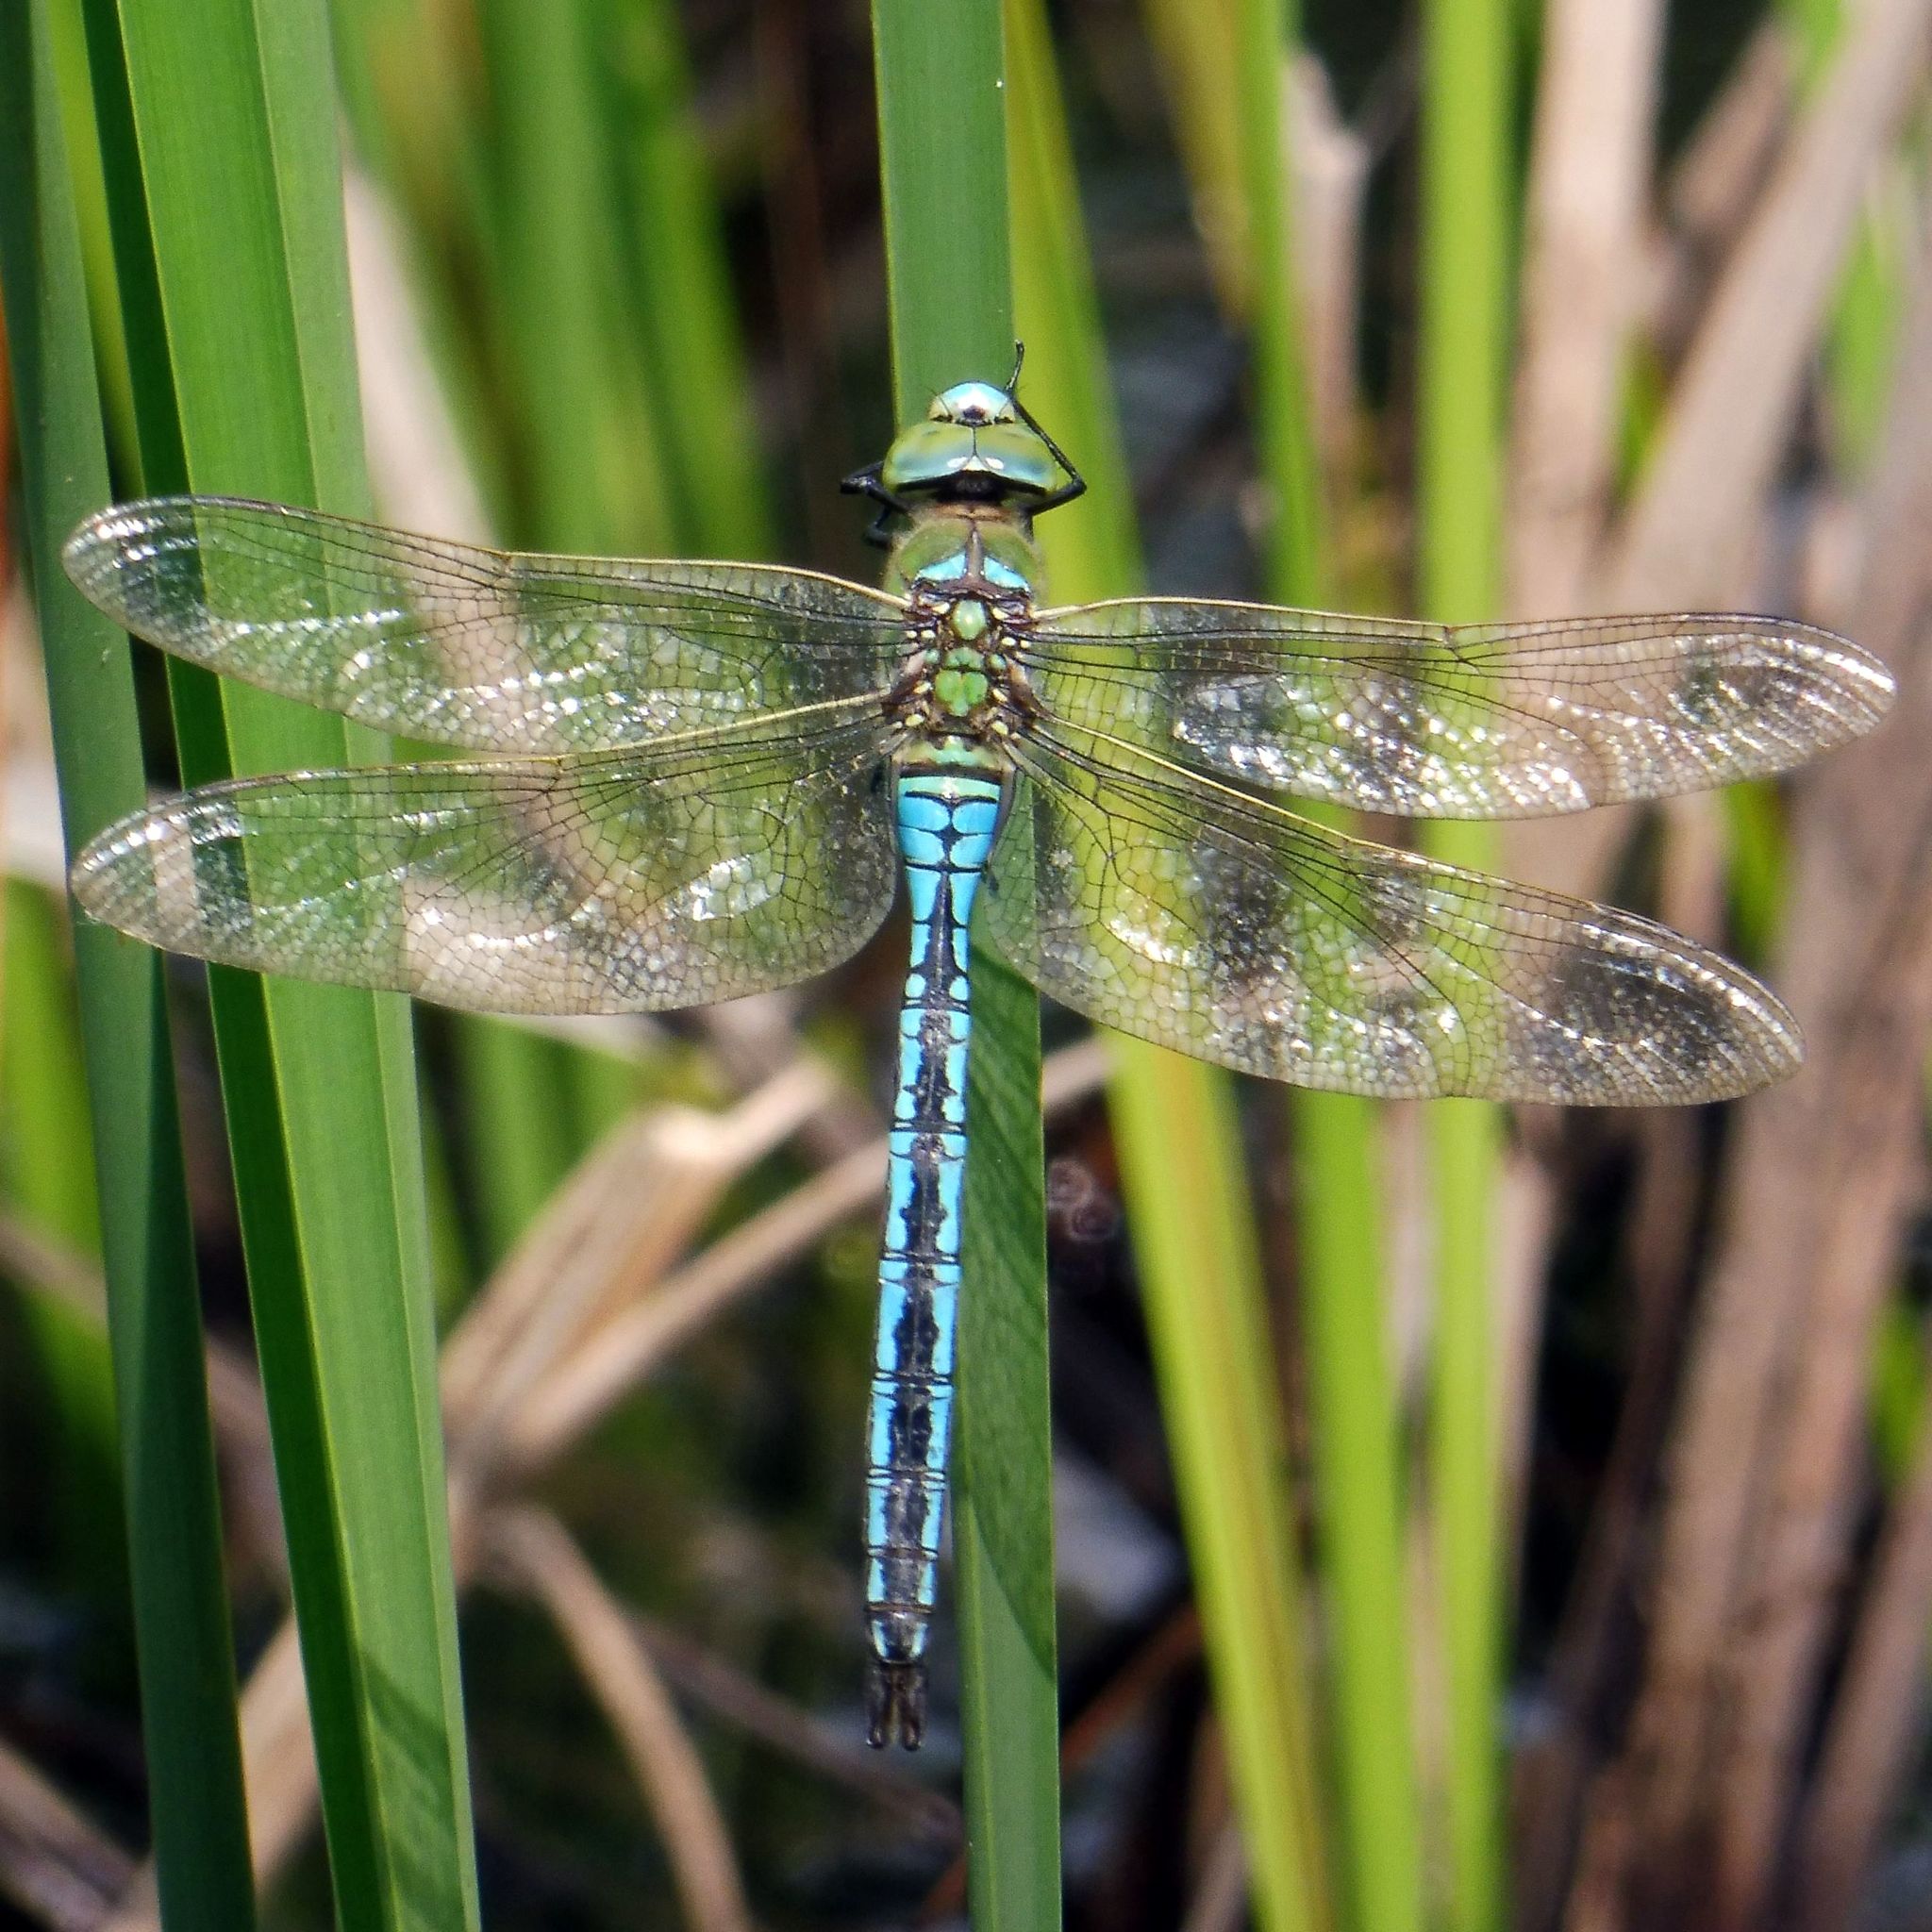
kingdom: Animalia
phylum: Arthropoda
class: Insecta
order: Odonata
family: Aeshnidae
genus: Anax
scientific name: Anax imperator
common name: Emperor dragonfly
